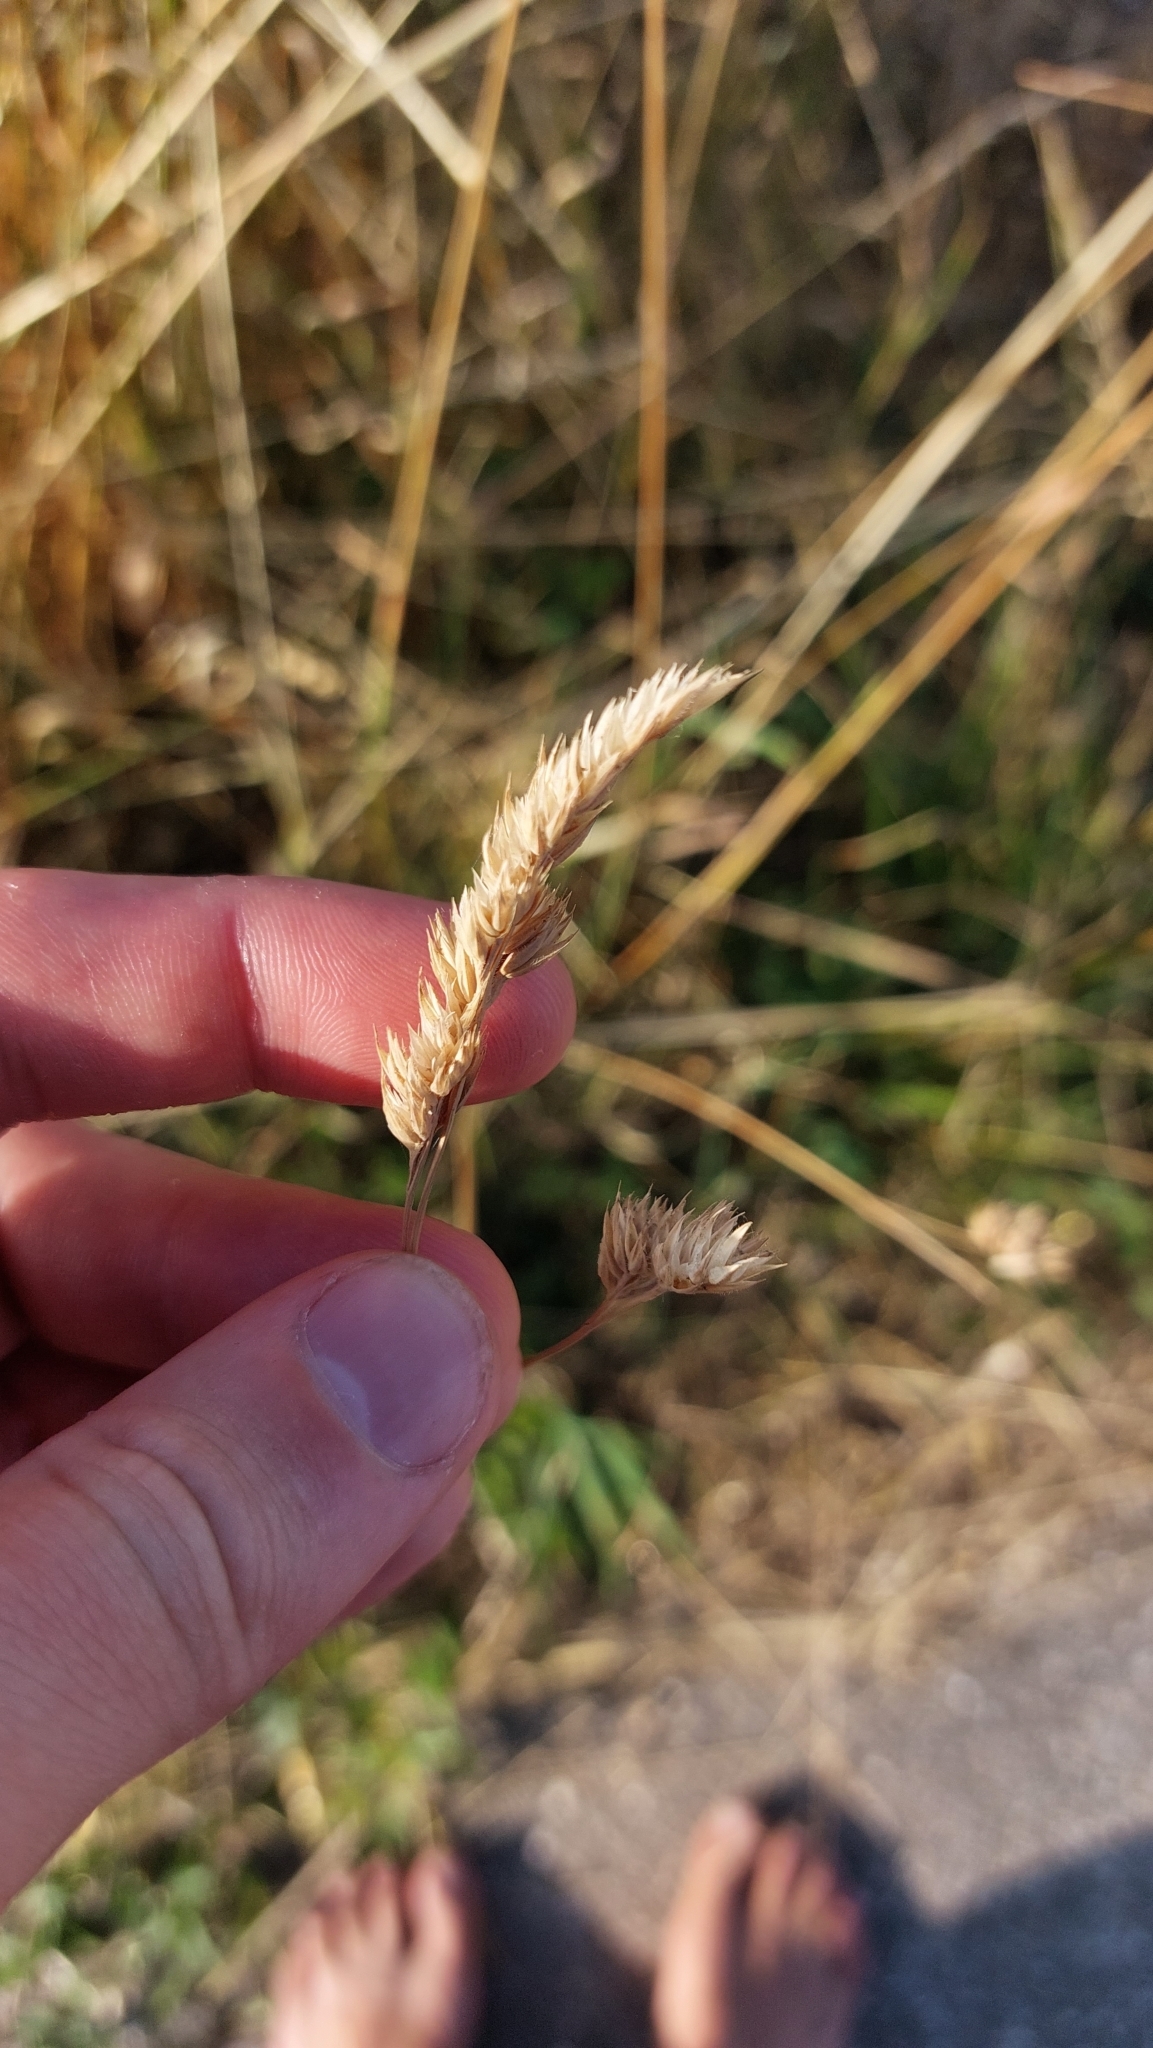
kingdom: Plantae
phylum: Tracheophyta
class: Liliopsida
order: Poales
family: Poaceae
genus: Dactylis
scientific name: Dactylis glomerata
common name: Orchardgrass
